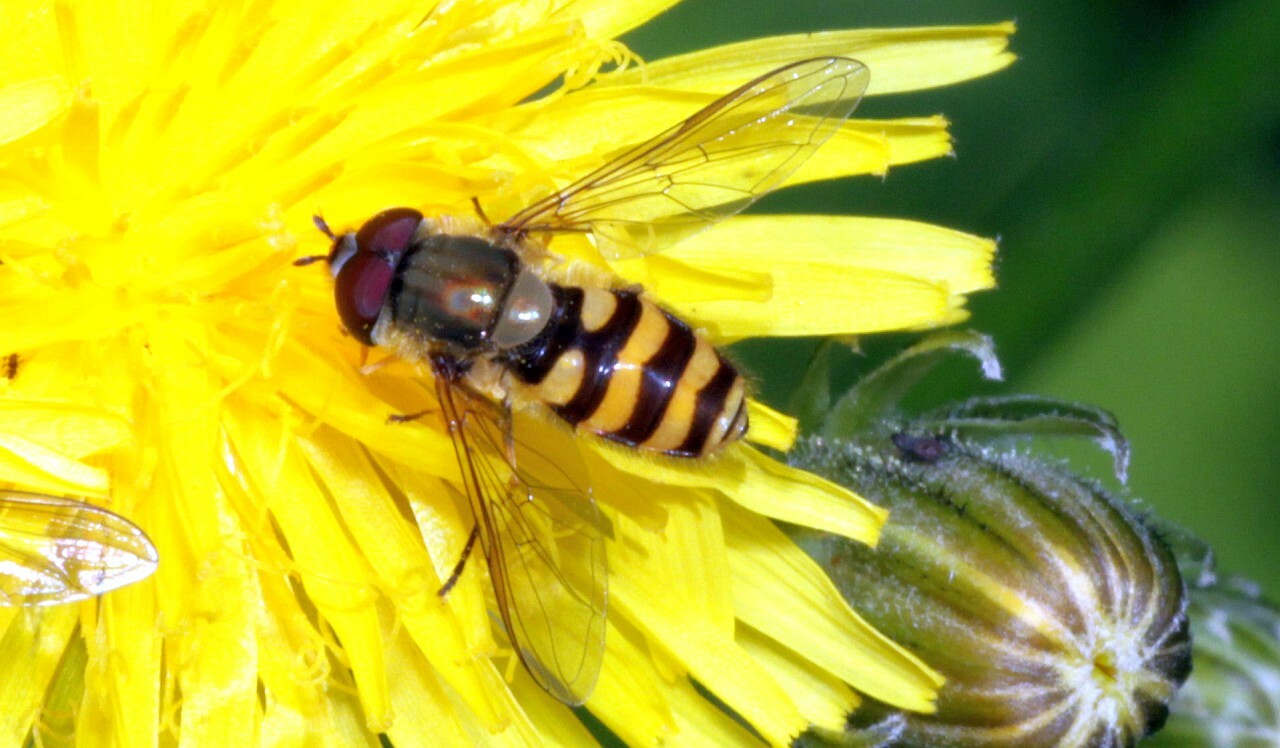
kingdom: Animalia
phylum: Arthropoda
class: Insecta
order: Diptera
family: Syrphidae
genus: Syrphus
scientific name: Syrphus
